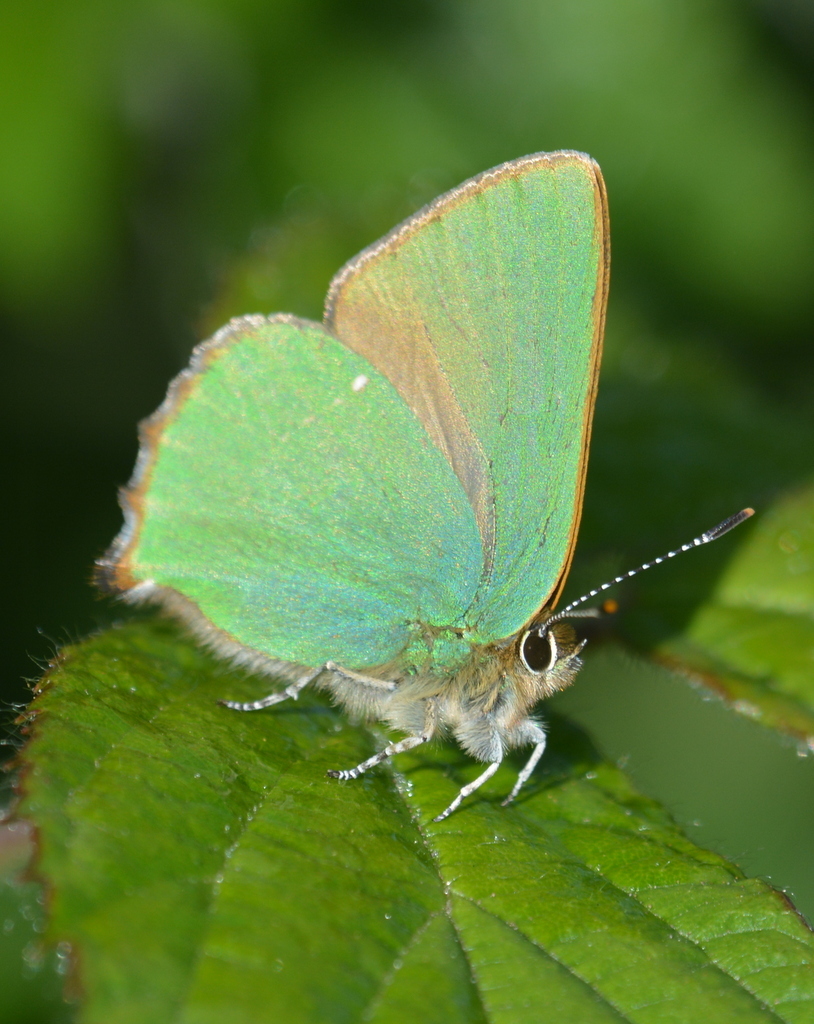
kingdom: Animalia
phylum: Arthropoda
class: Insecta
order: Lepidoptera
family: Lycaenidae
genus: Callophrys
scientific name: Callophrys rubi
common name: Green hairstreak
